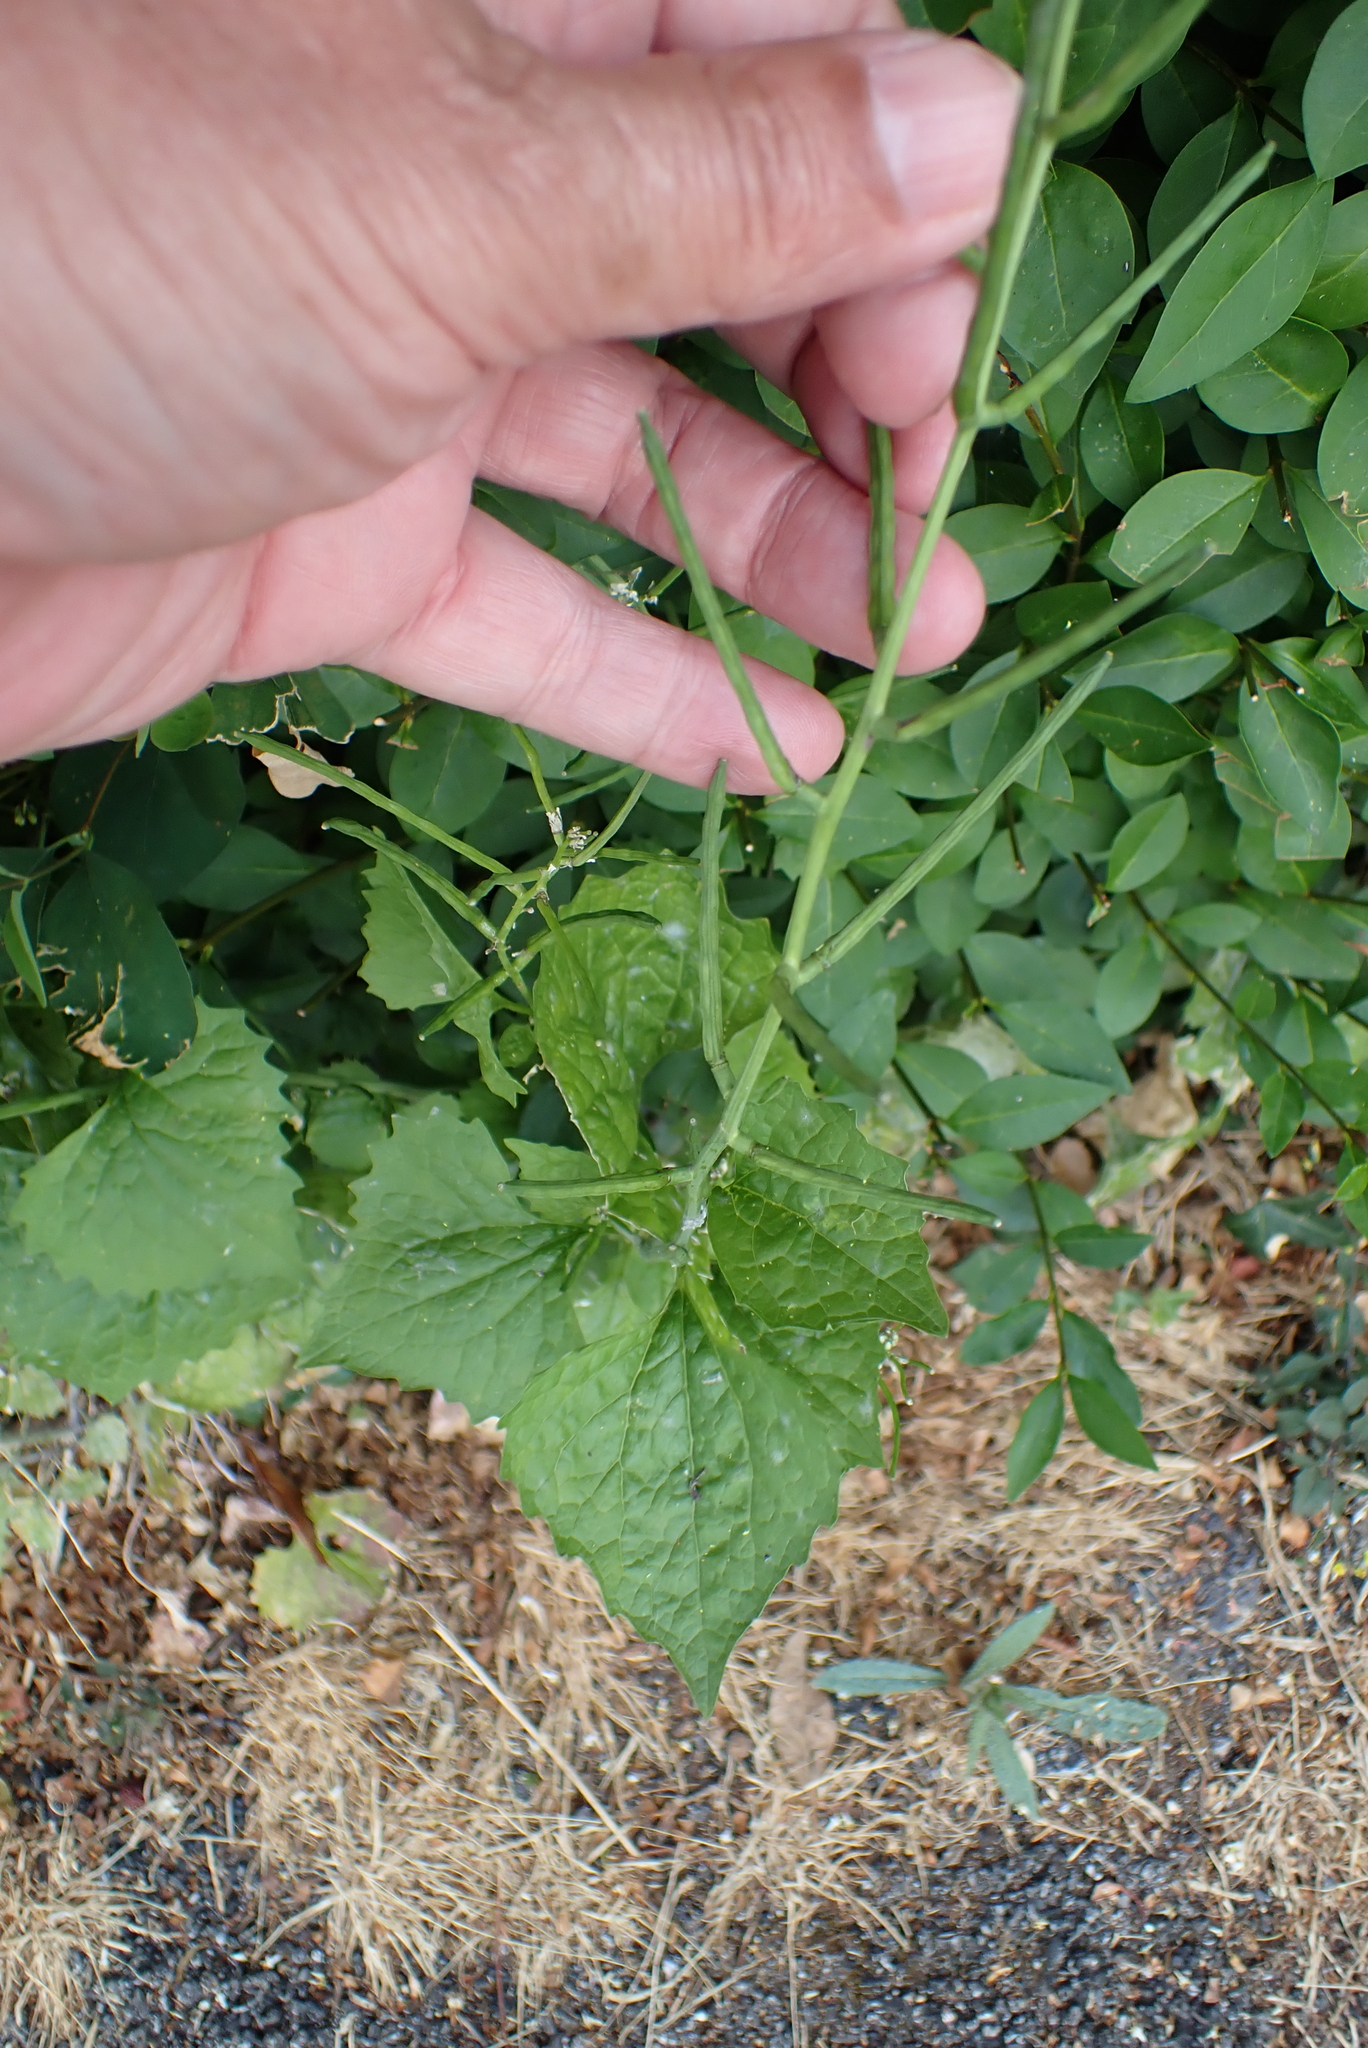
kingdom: Plantae
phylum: Tracheophyta
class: Magnoliopsida
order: Brassicales
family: Brassicaceae
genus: Alliaria
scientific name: Alliaria petiolata
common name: Garlic mustard
